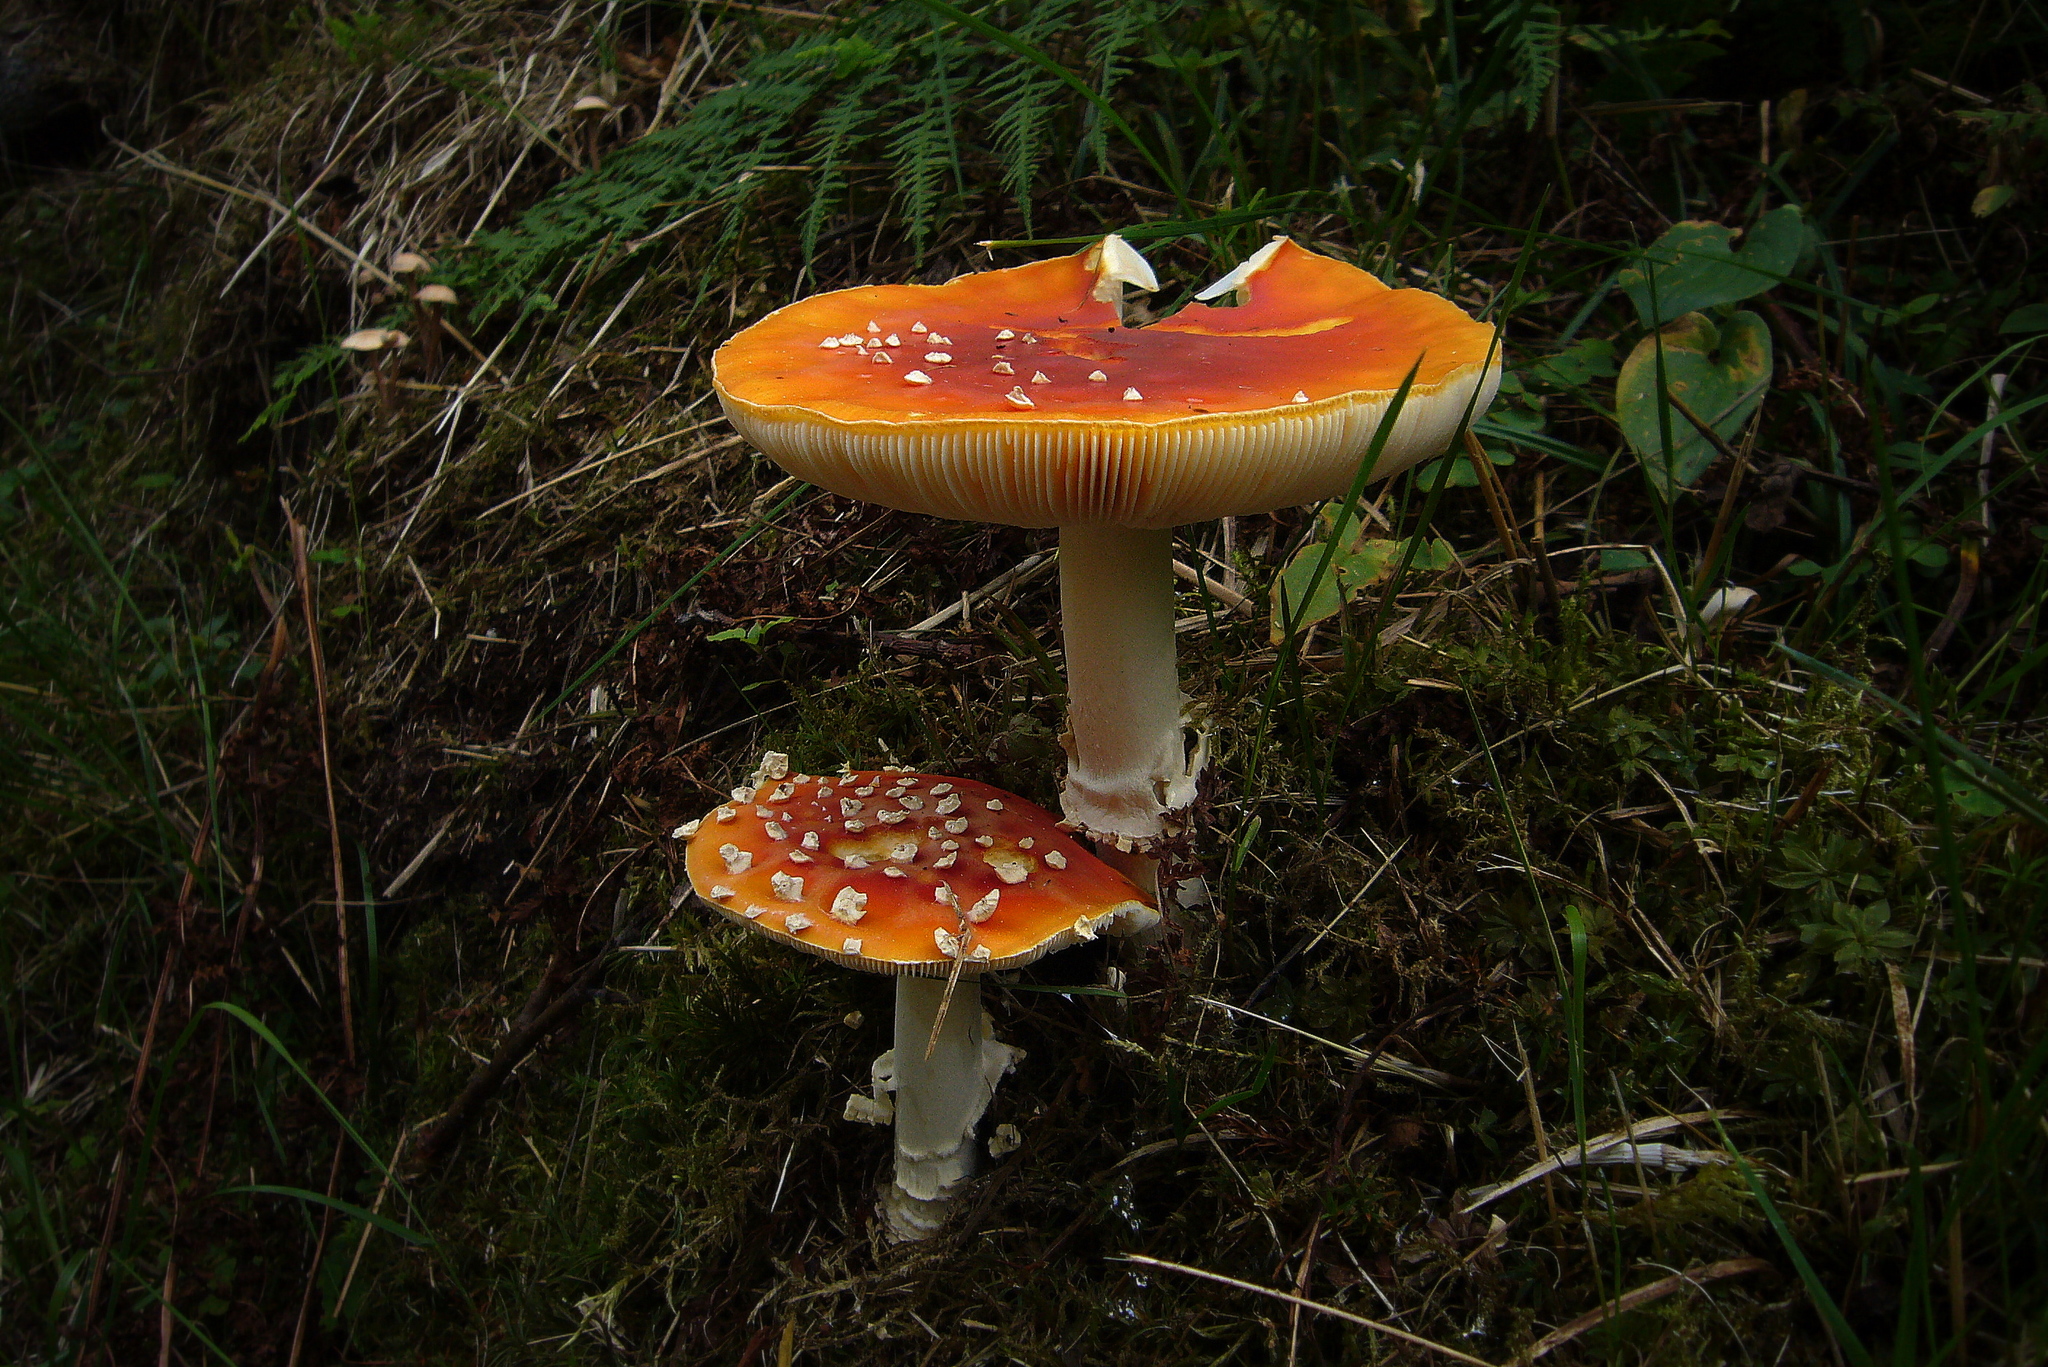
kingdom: Fungi
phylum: Basidiomycota
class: Agaricomycetes
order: Agaricales
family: Amanitaceae
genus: Amanita
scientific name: Amanita muscaria
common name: Fly agaric
